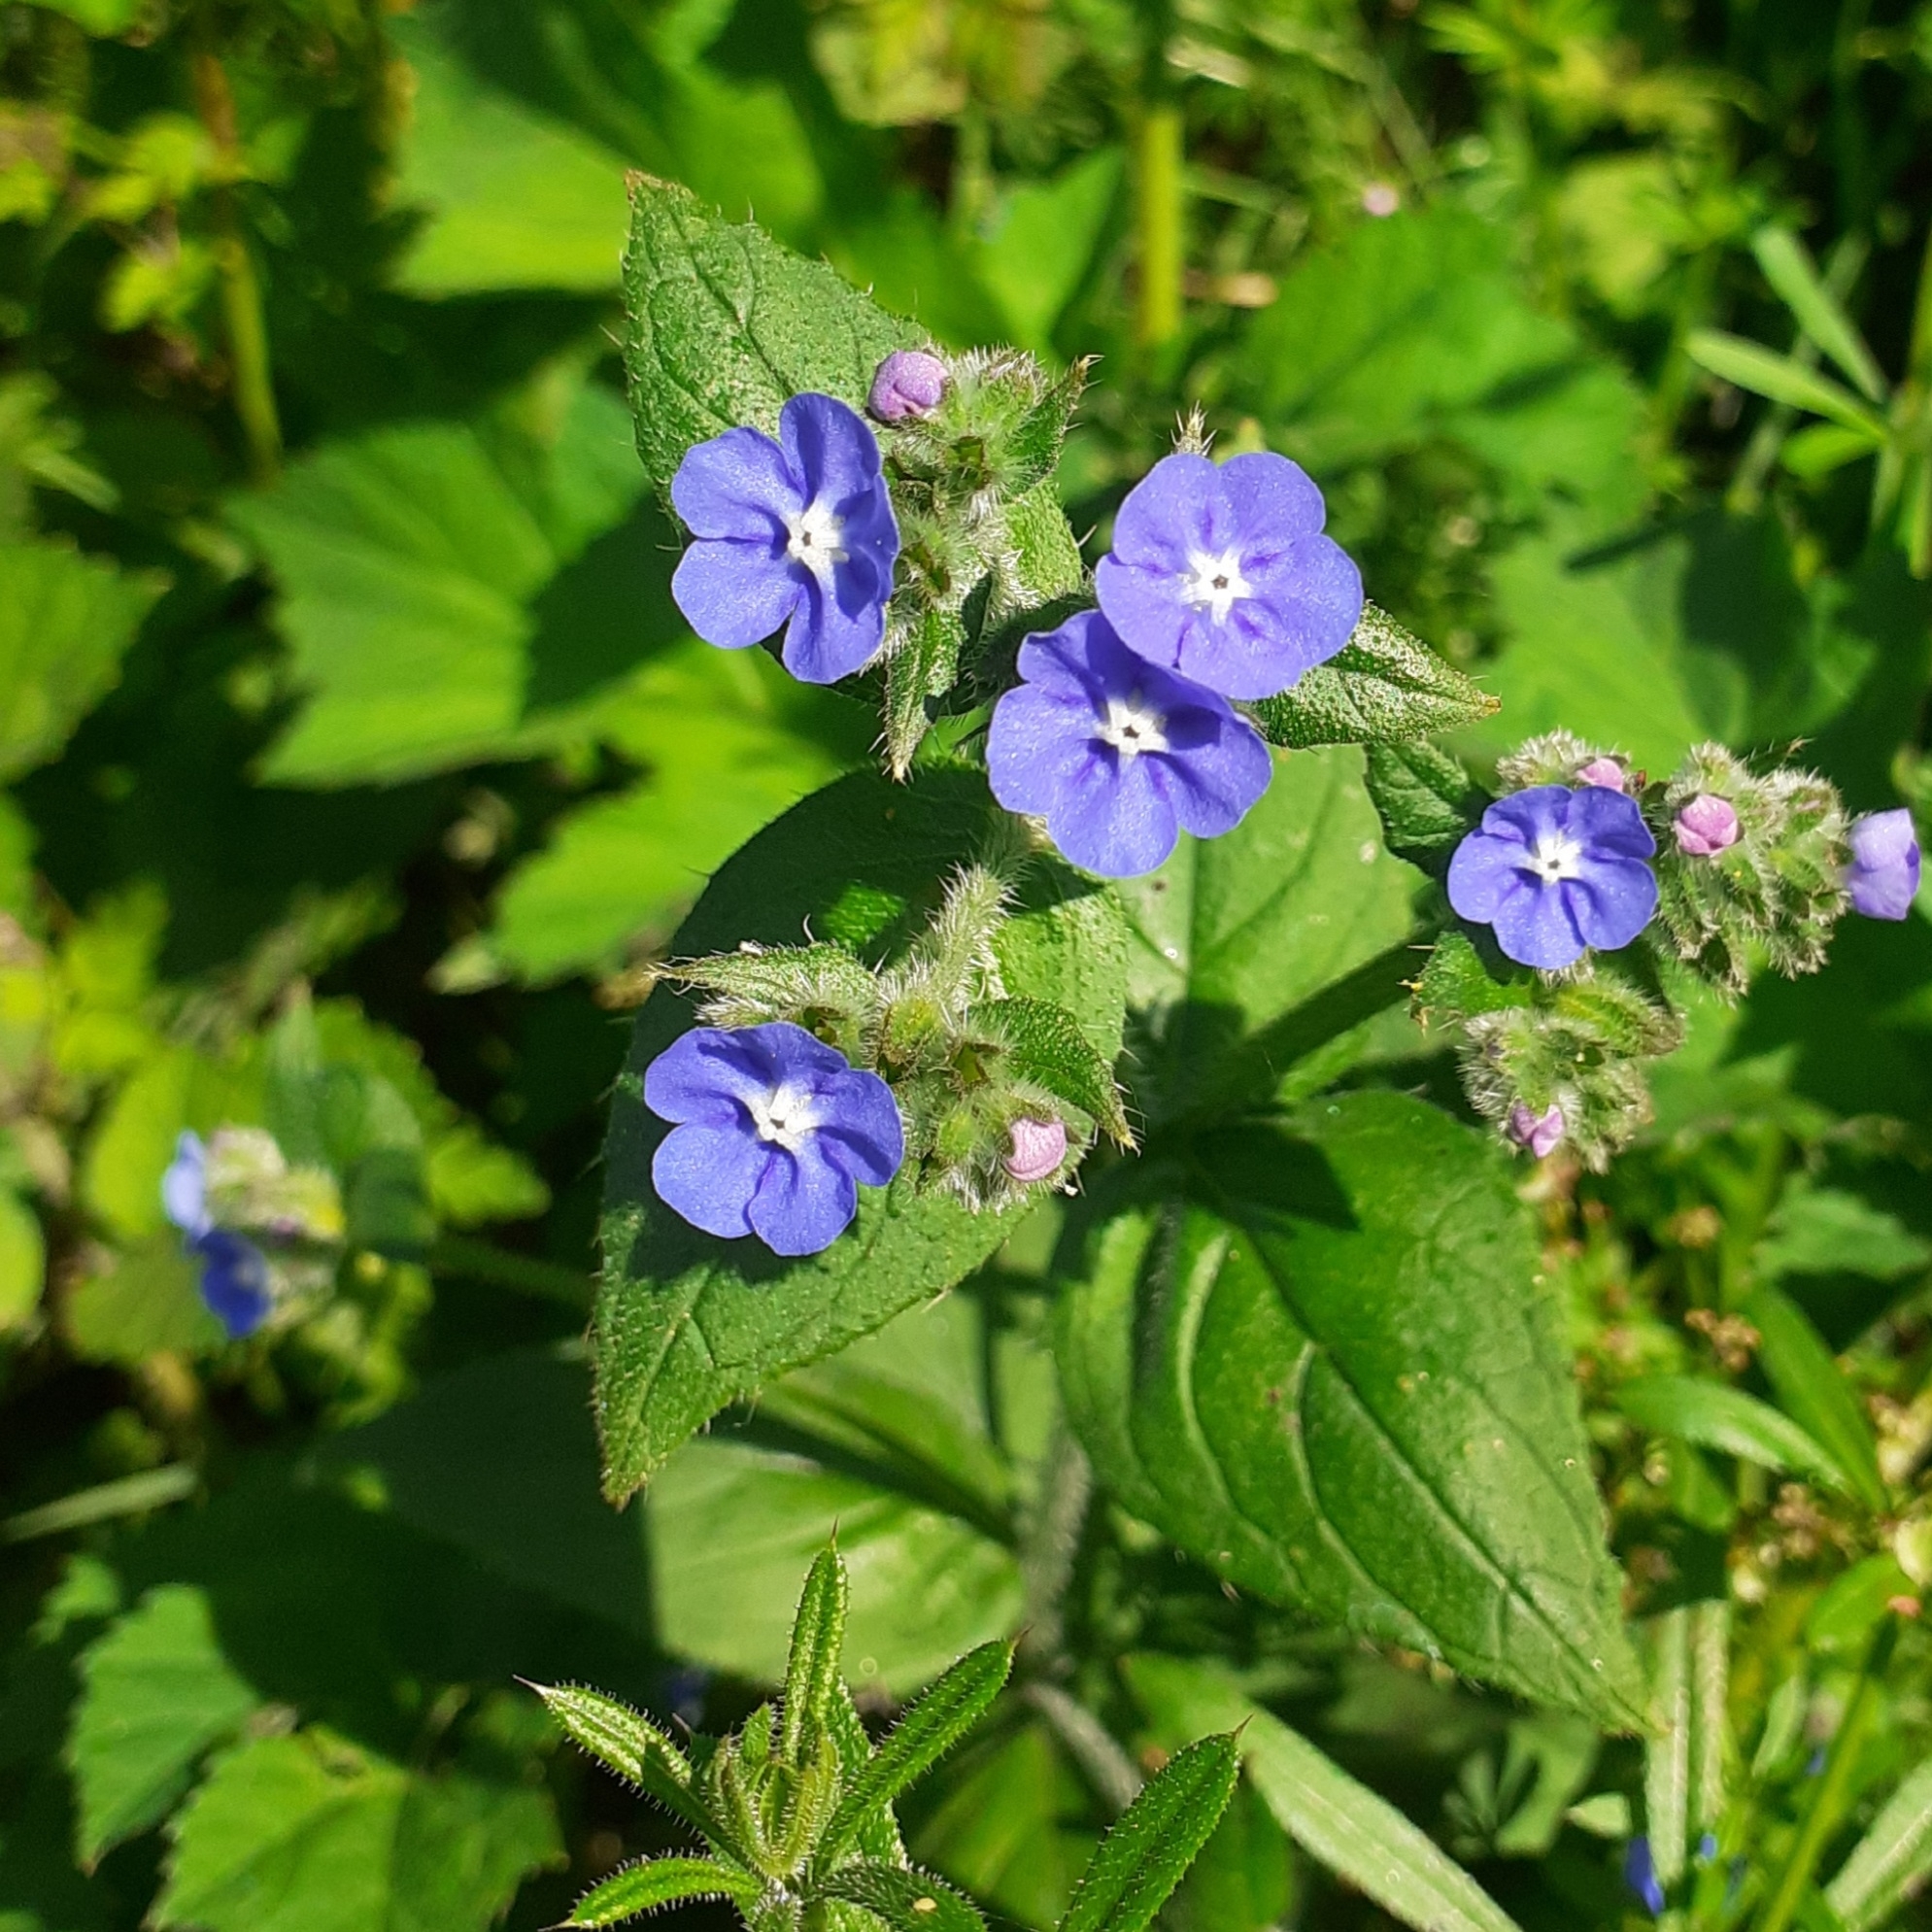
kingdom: Plantae
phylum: Tracheophyta
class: Magnoliopsida
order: Boraginales
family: Boraginaceae
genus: Pentaglottis
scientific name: Pentaglottis sempervirens
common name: Green alkanet
